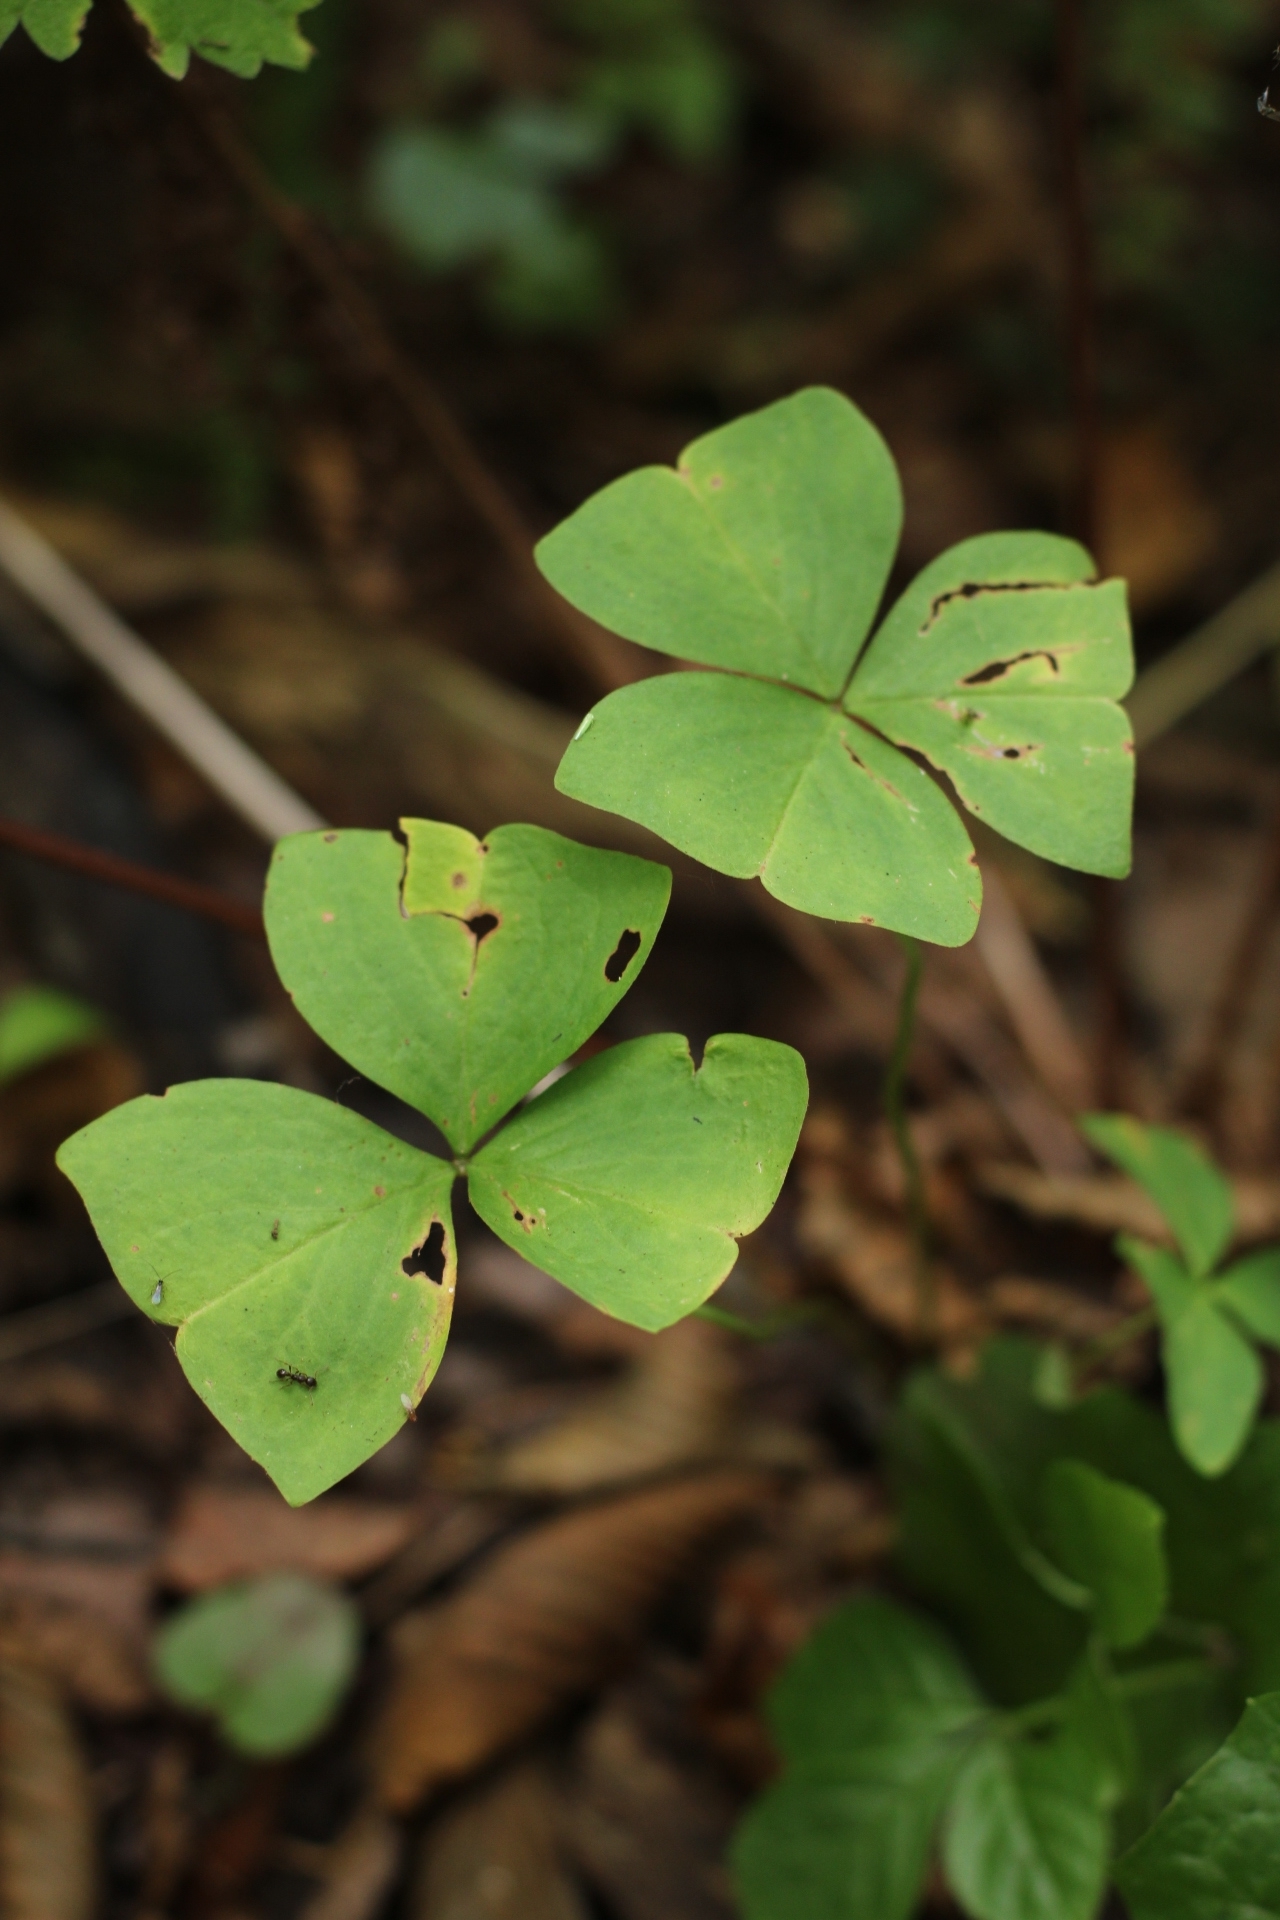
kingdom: Plantae
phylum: Tracheophyta
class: Magnoliopsida
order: Oxalidales
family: Oxalidaceae
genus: Oxalis
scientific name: Oxalis obtriangulata
